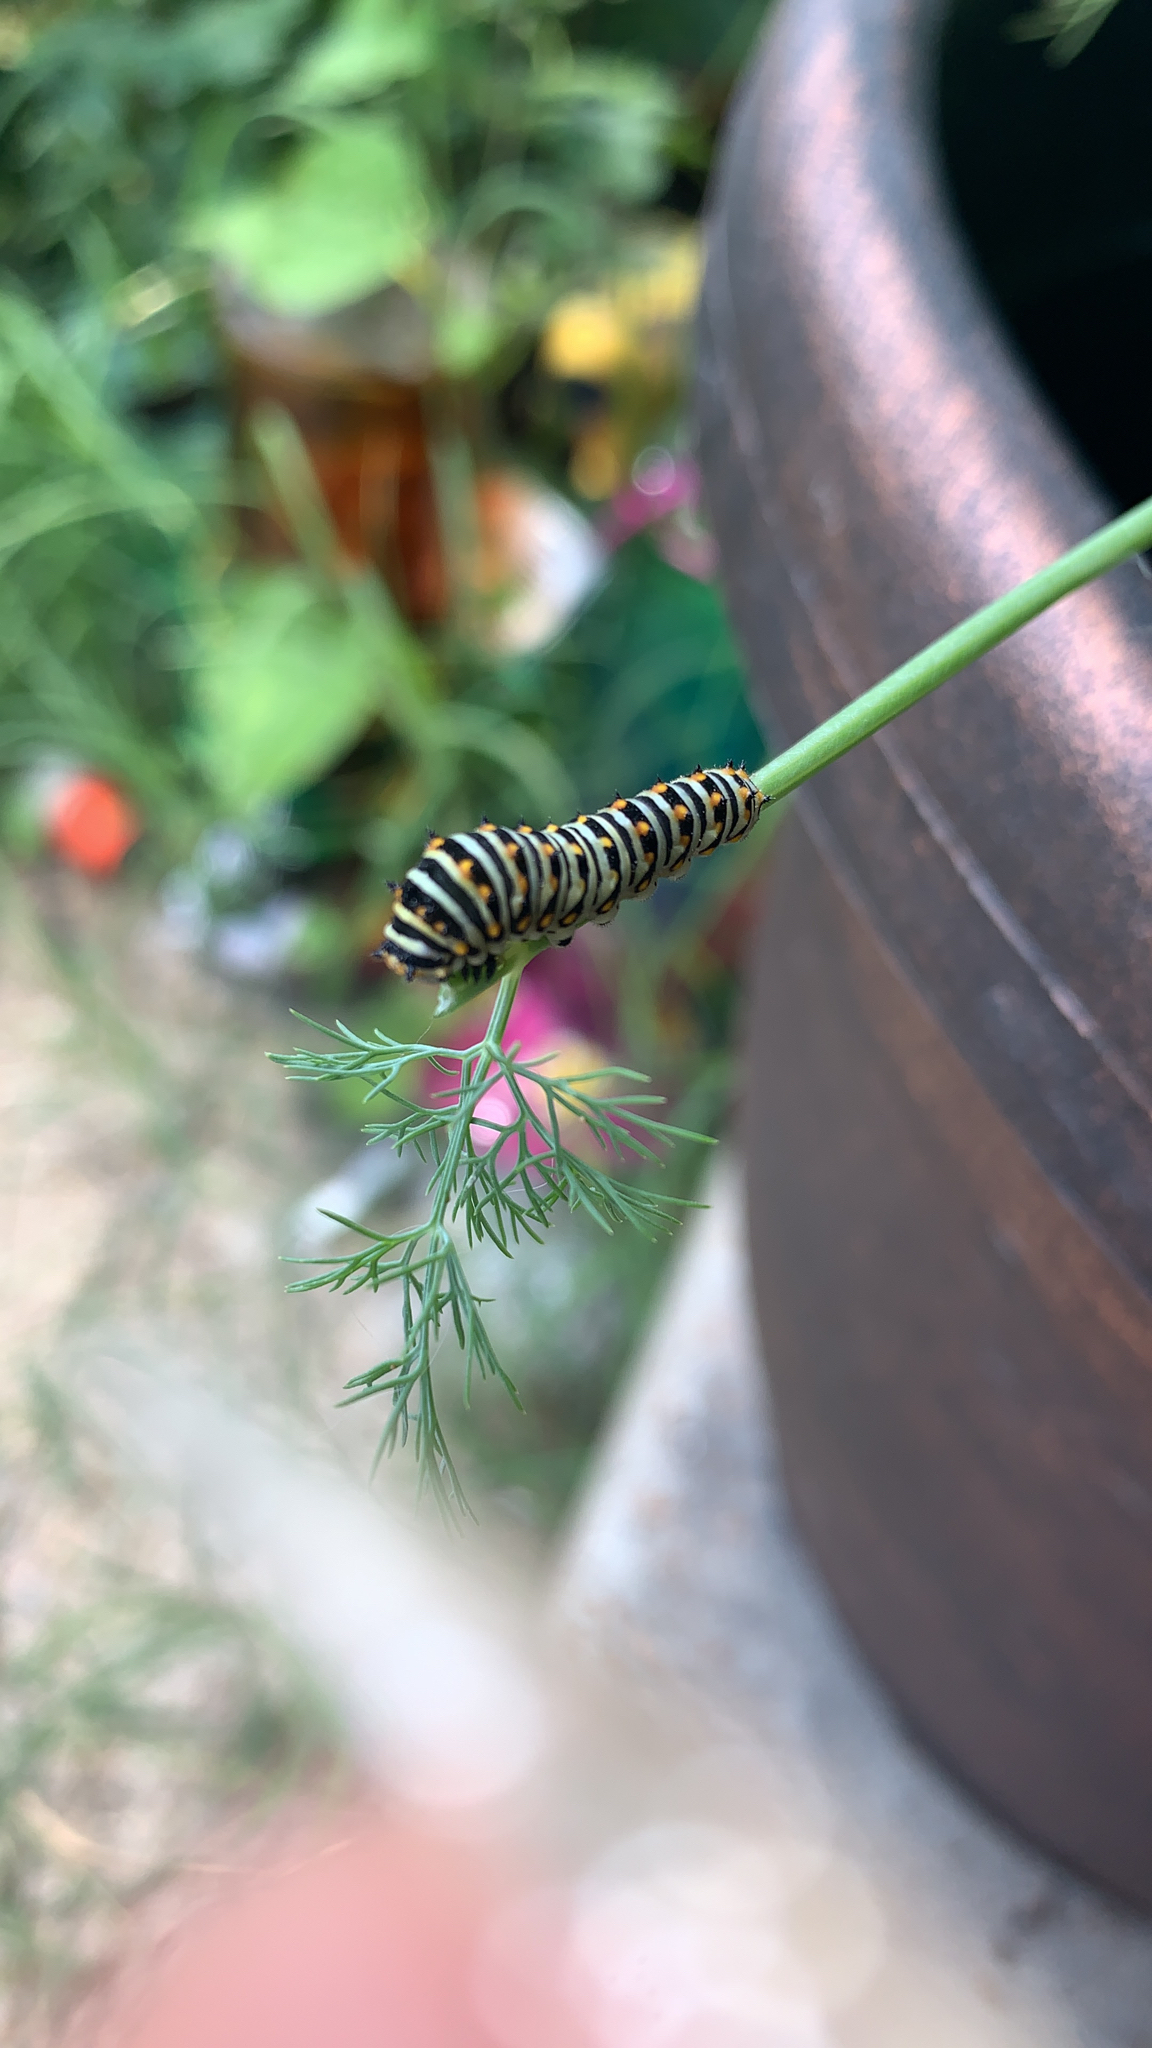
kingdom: Animalia
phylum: Arthropoda
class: Insecta
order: Lepidoptera
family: Papilionidae
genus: Papilio
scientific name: Papilio polyxenes
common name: Black swallowtail
